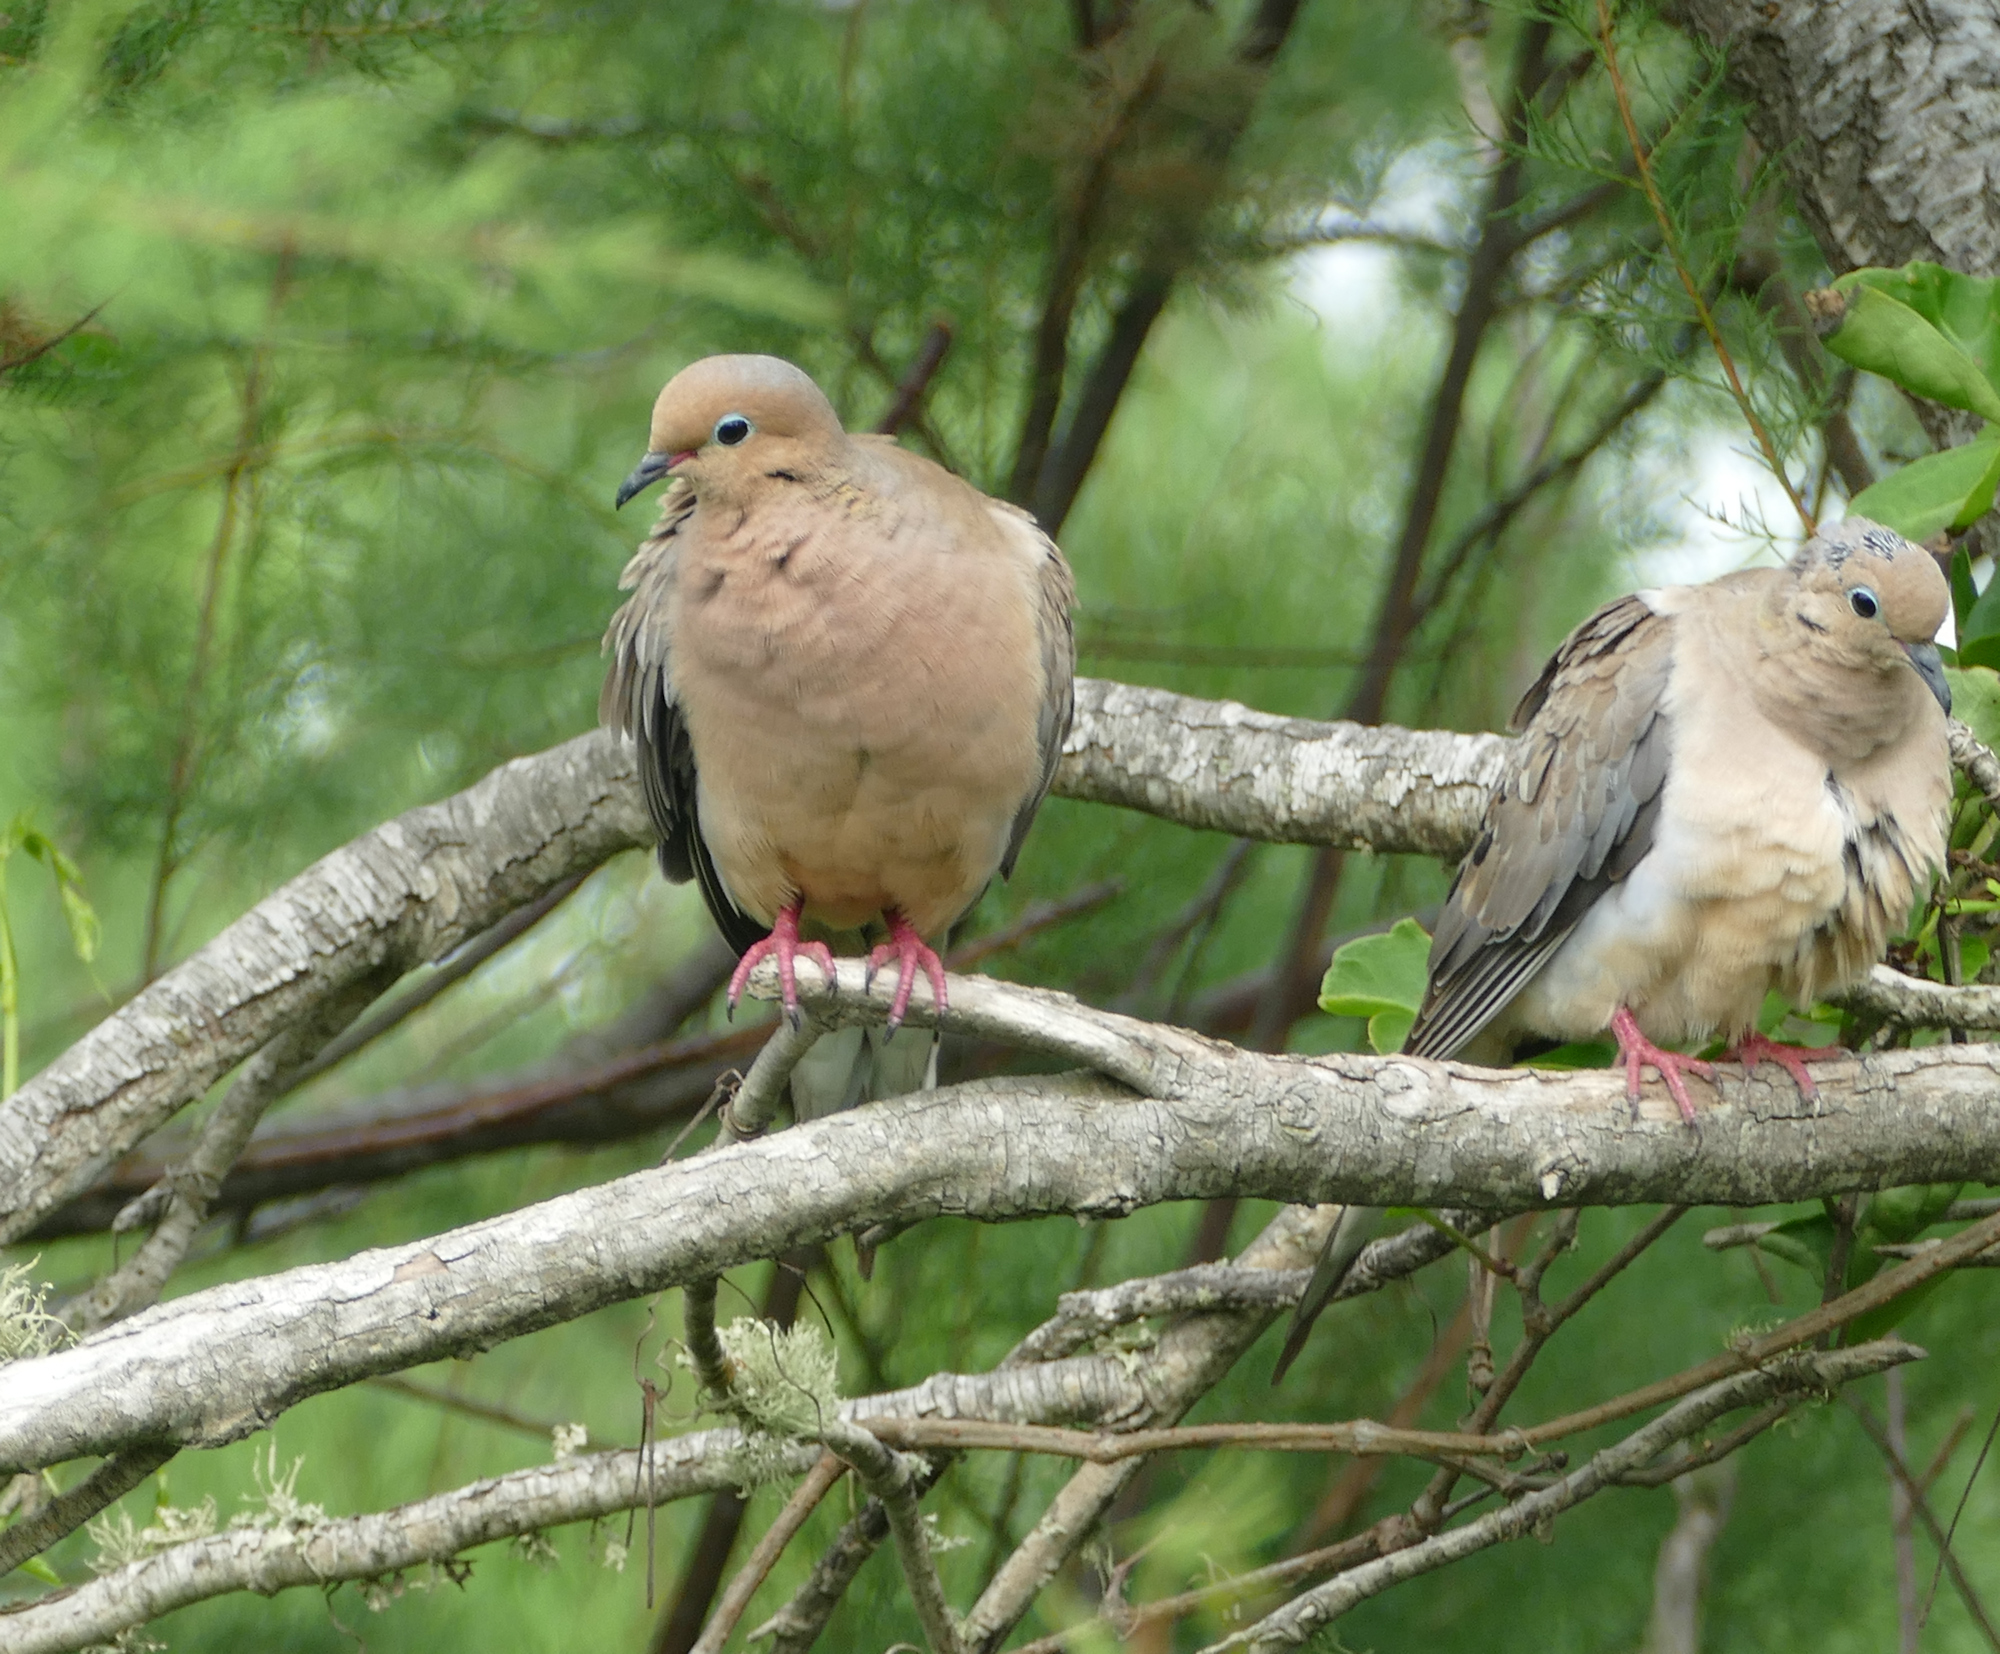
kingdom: Animalia
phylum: Chordata
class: Aves
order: Columbiformes
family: Columbidae
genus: Zenaida
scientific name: Zenaida macroura
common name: Mourning dove
